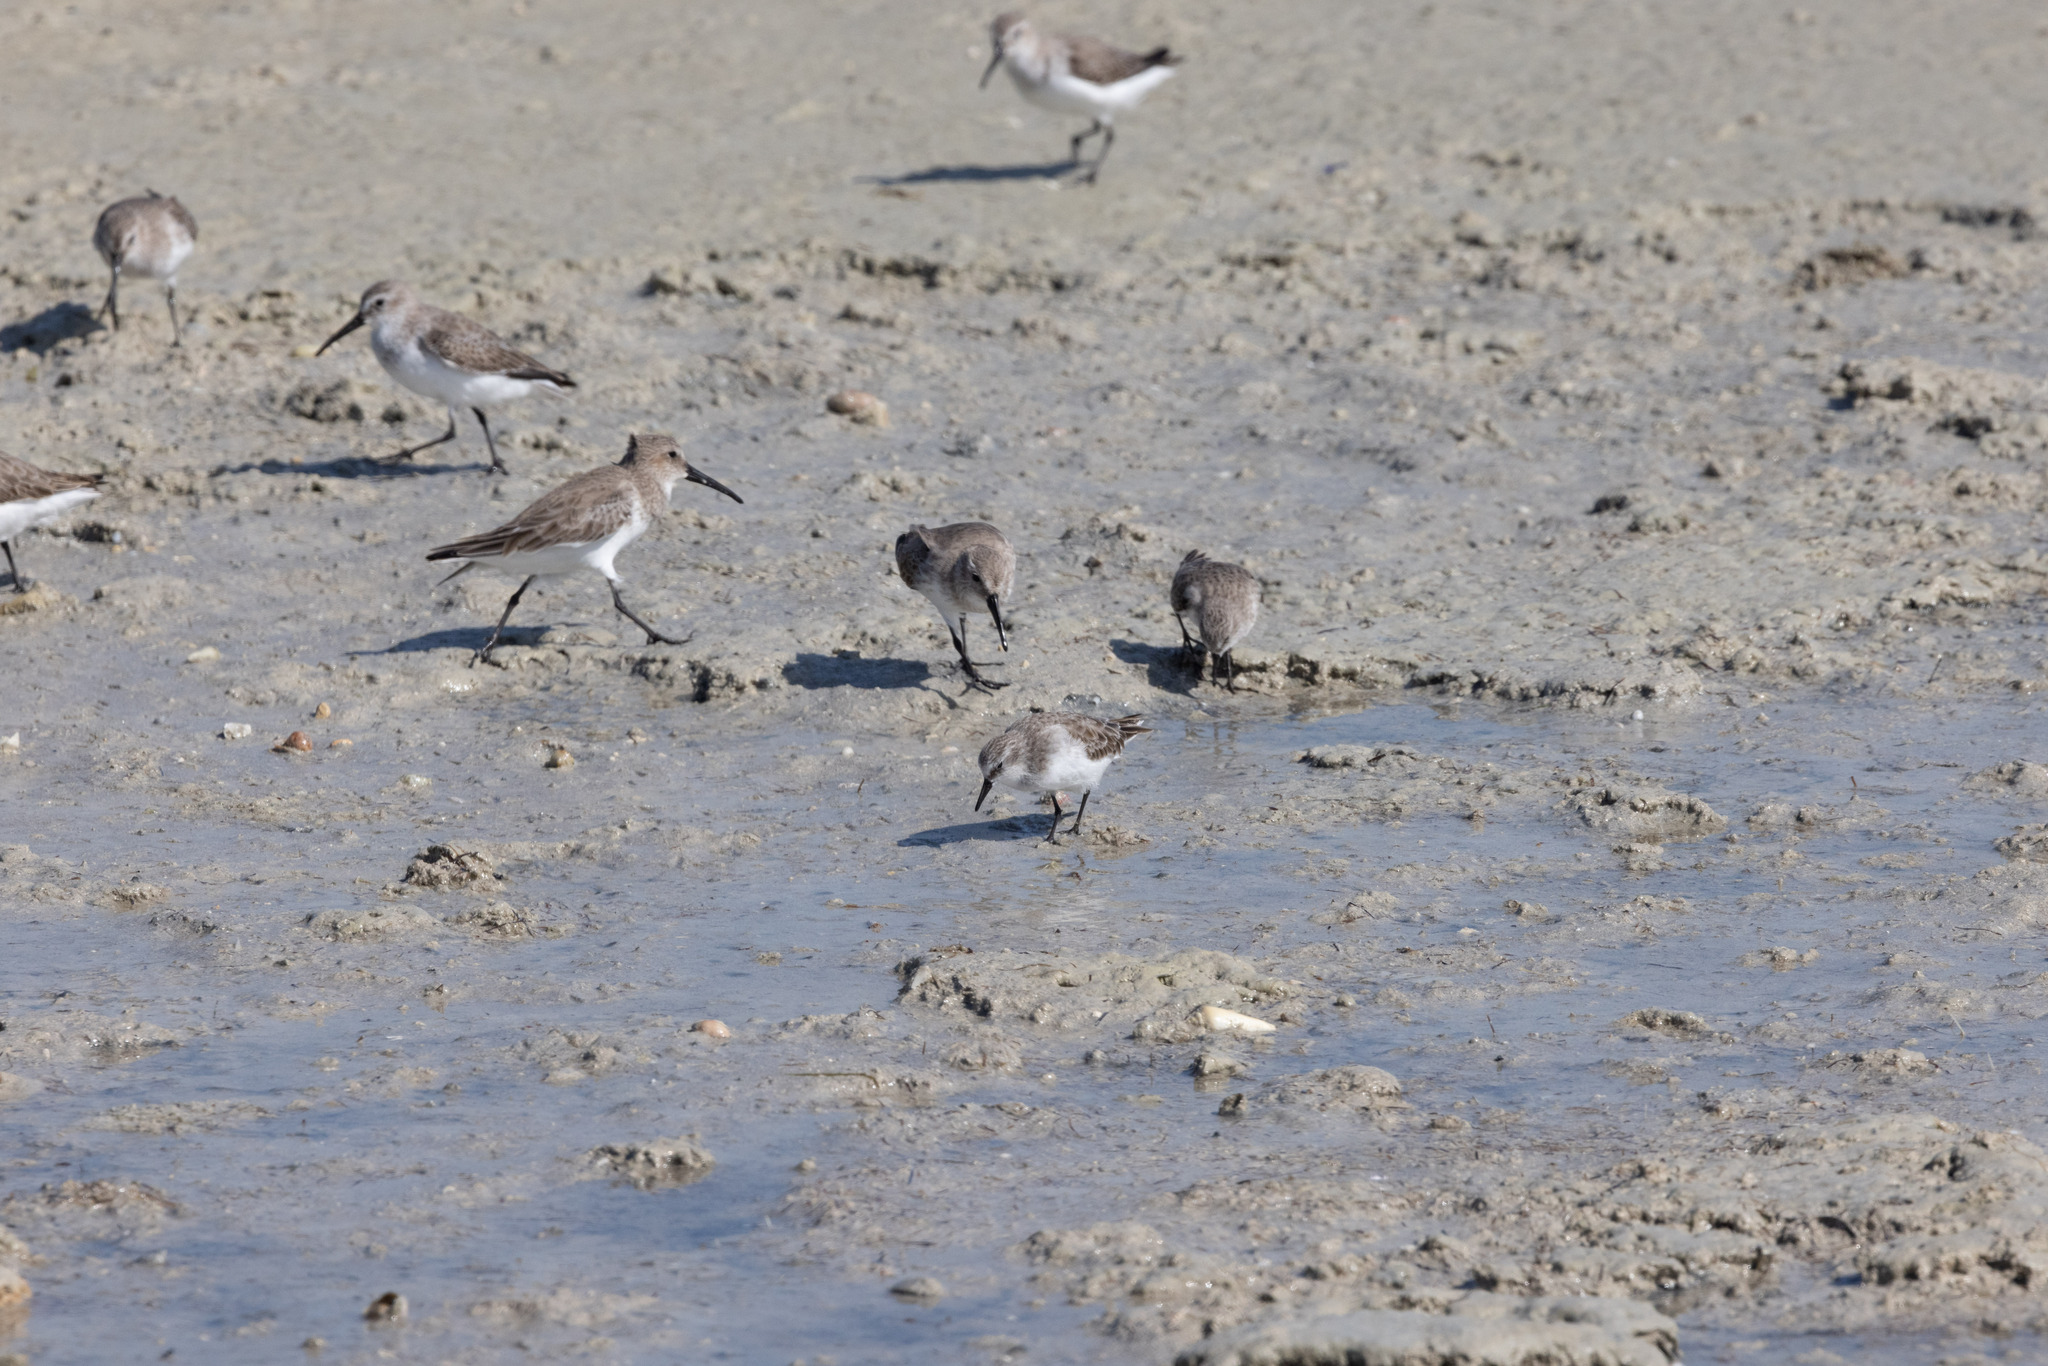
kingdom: Animalia
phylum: Chordata
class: Aves
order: Charadriiformes
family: Scolopacidae
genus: Calidris
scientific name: Calidris alpina
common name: Dunlin
